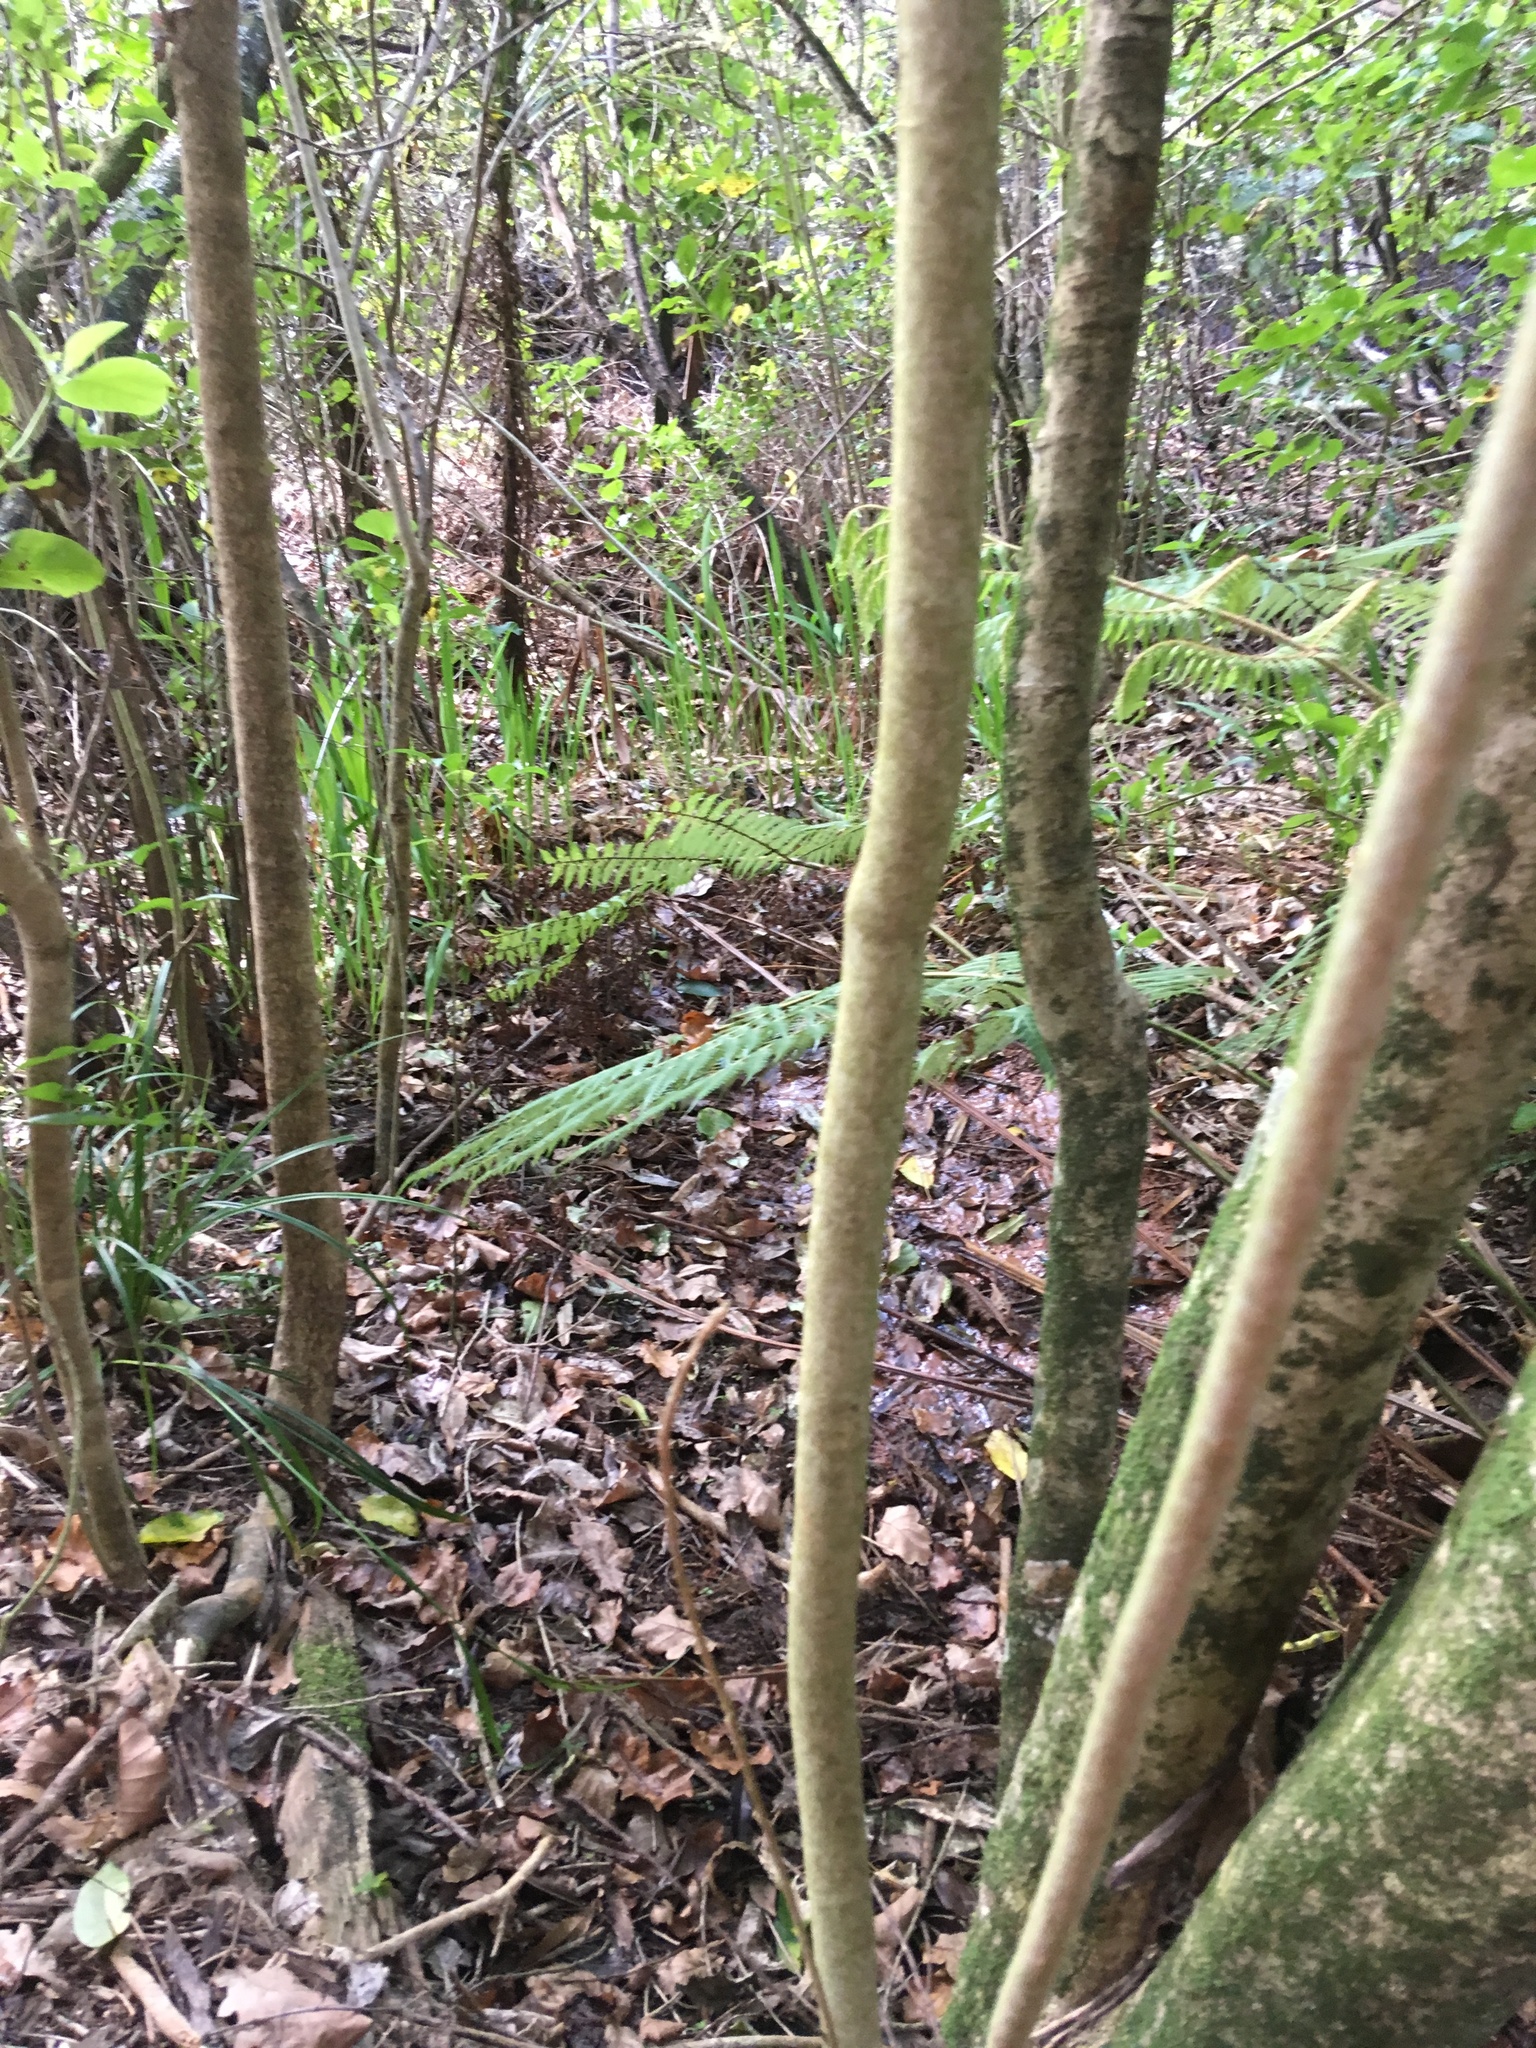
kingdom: Plantae
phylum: Tracheophyta
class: Liliopsida
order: Asparagales
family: Iridaceae
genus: Crocosmia
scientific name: Crocosmia crocosmiiflora
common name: Montbretia
